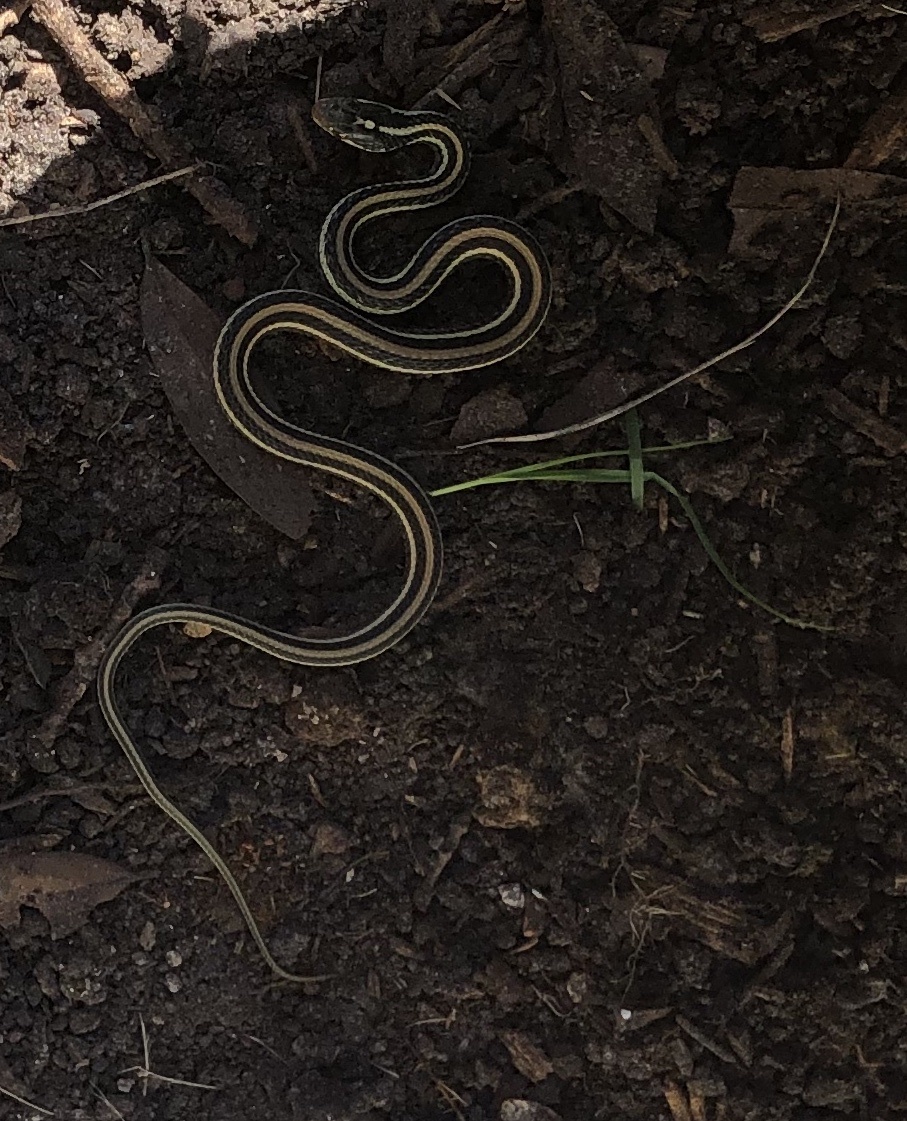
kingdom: Animalia
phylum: Chordata
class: Squamata
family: Colubridae
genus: Thamnophis
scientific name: Thamnophis proximus
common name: Western ribbon snake
